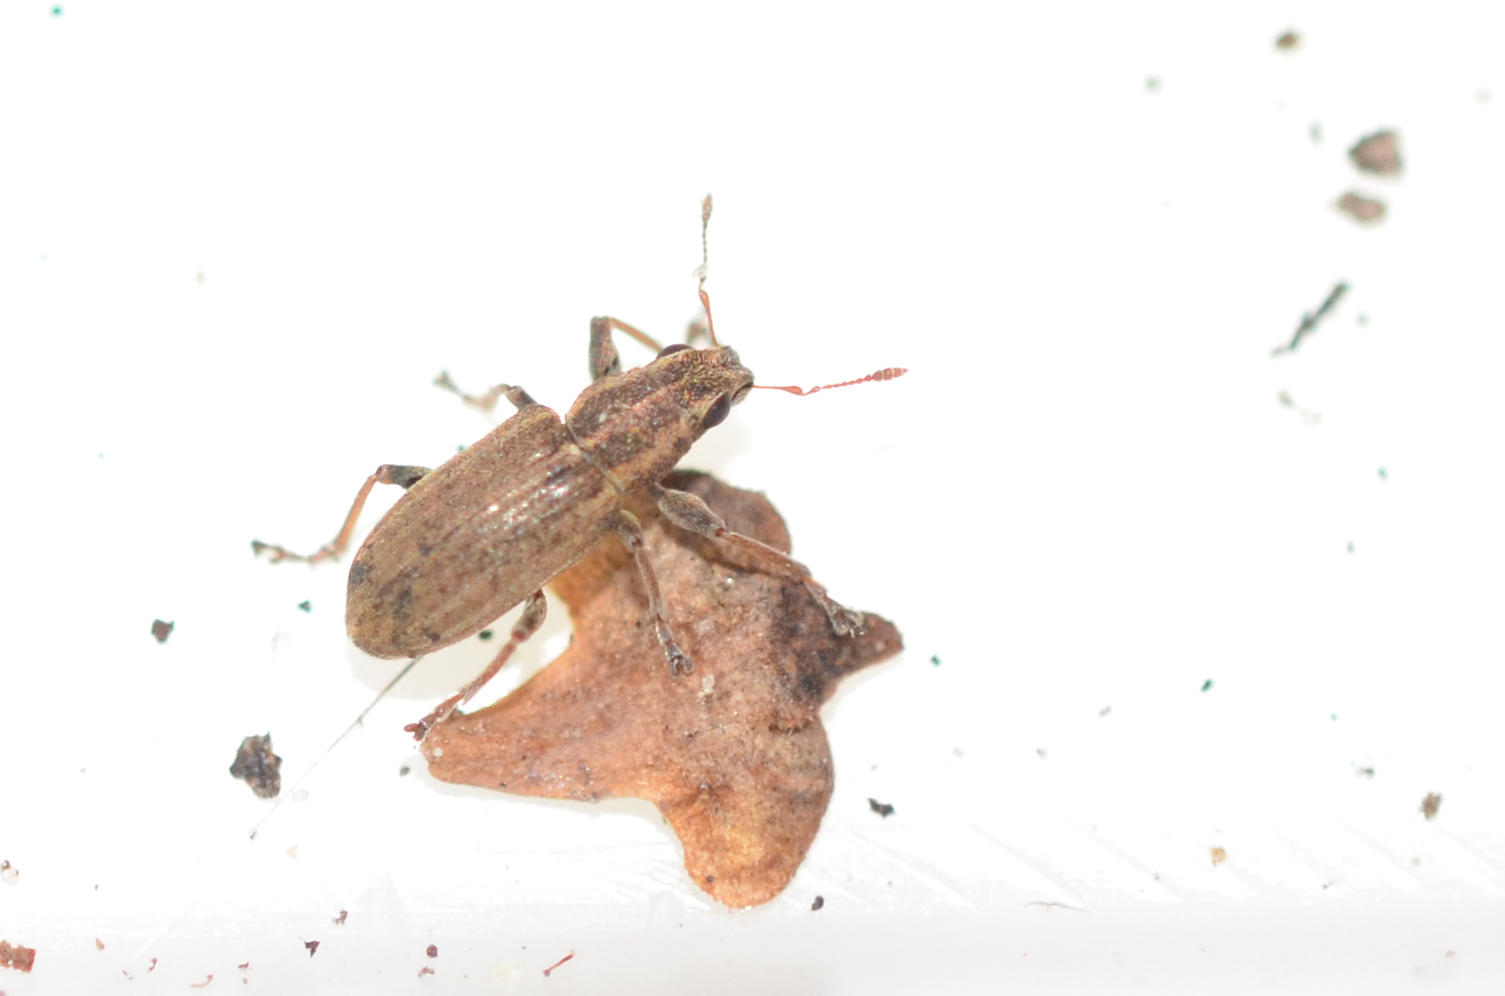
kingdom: Animalia
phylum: Arthropoda
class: Insecta
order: Coleoptera
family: Curculionidae
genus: Sitona
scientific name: Sitona lineatus
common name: Weevil
